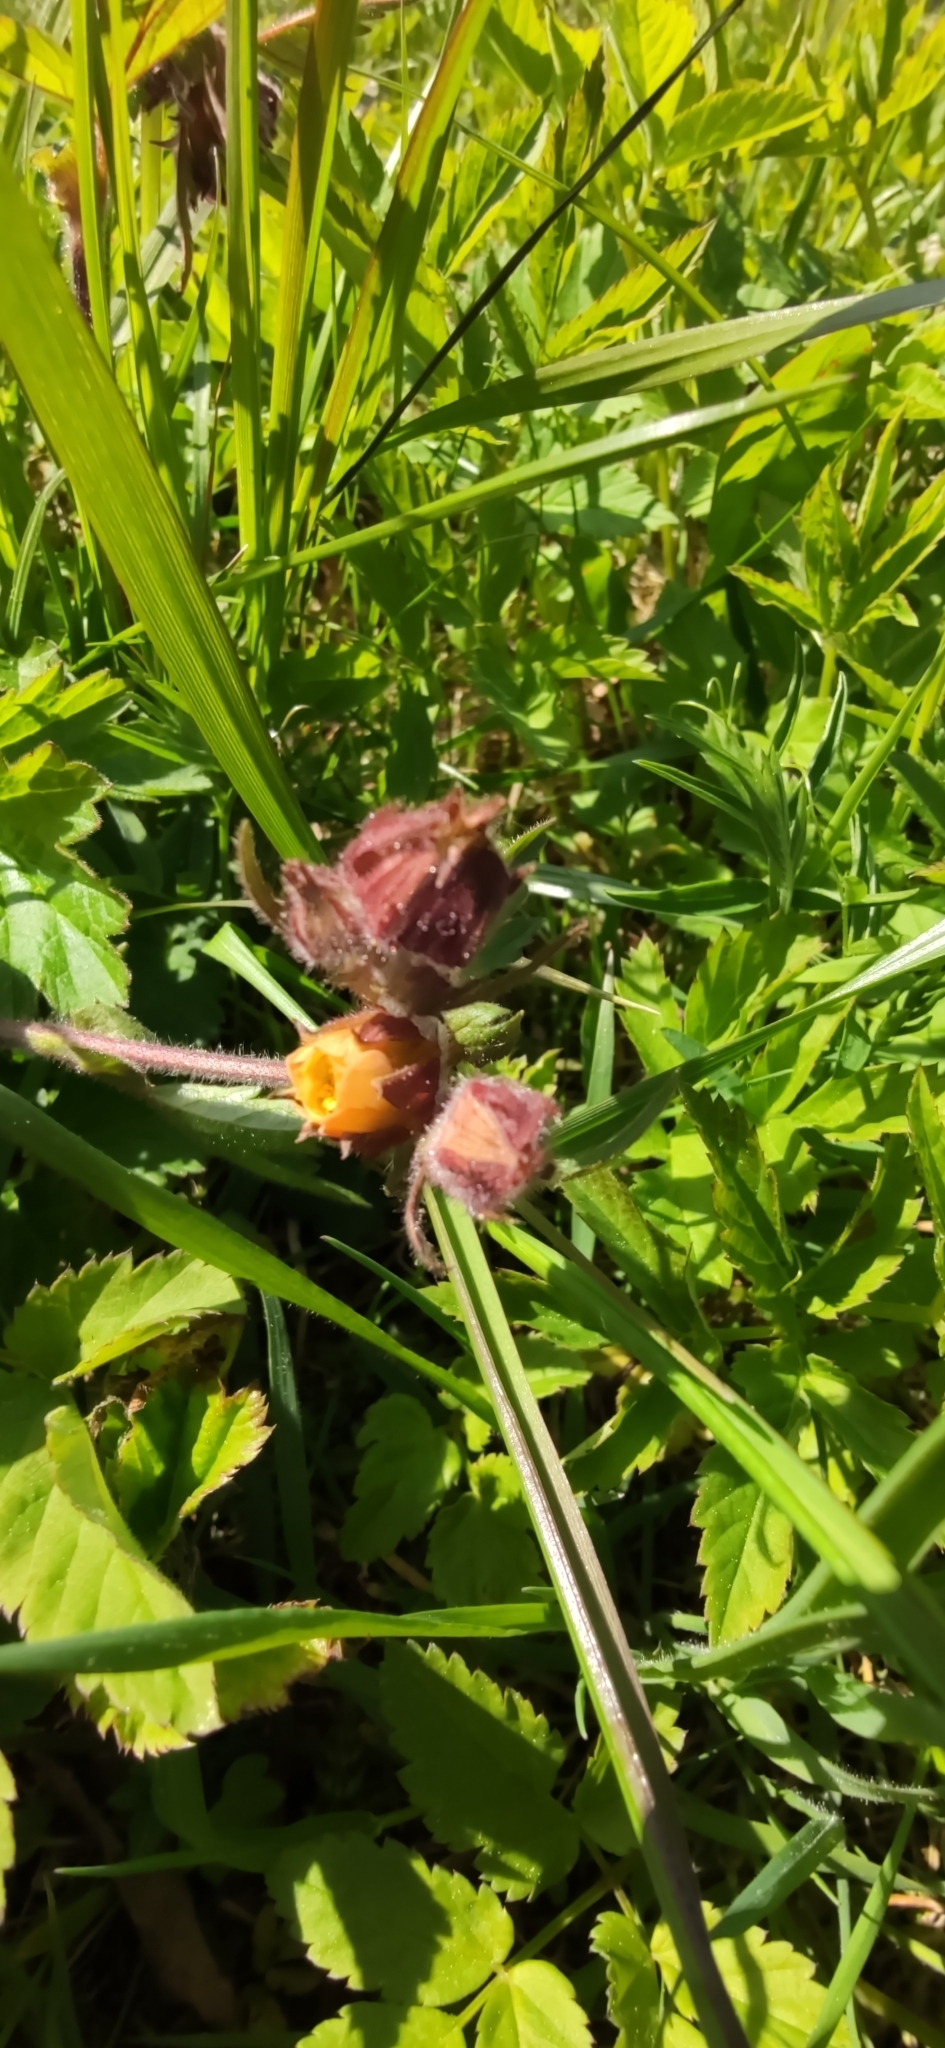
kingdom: Plantae
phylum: Tracheophyta
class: Magnoliopsida
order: Rosales
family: Rosaceae
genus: Geum
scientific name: Geum rivale
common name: Water avens
